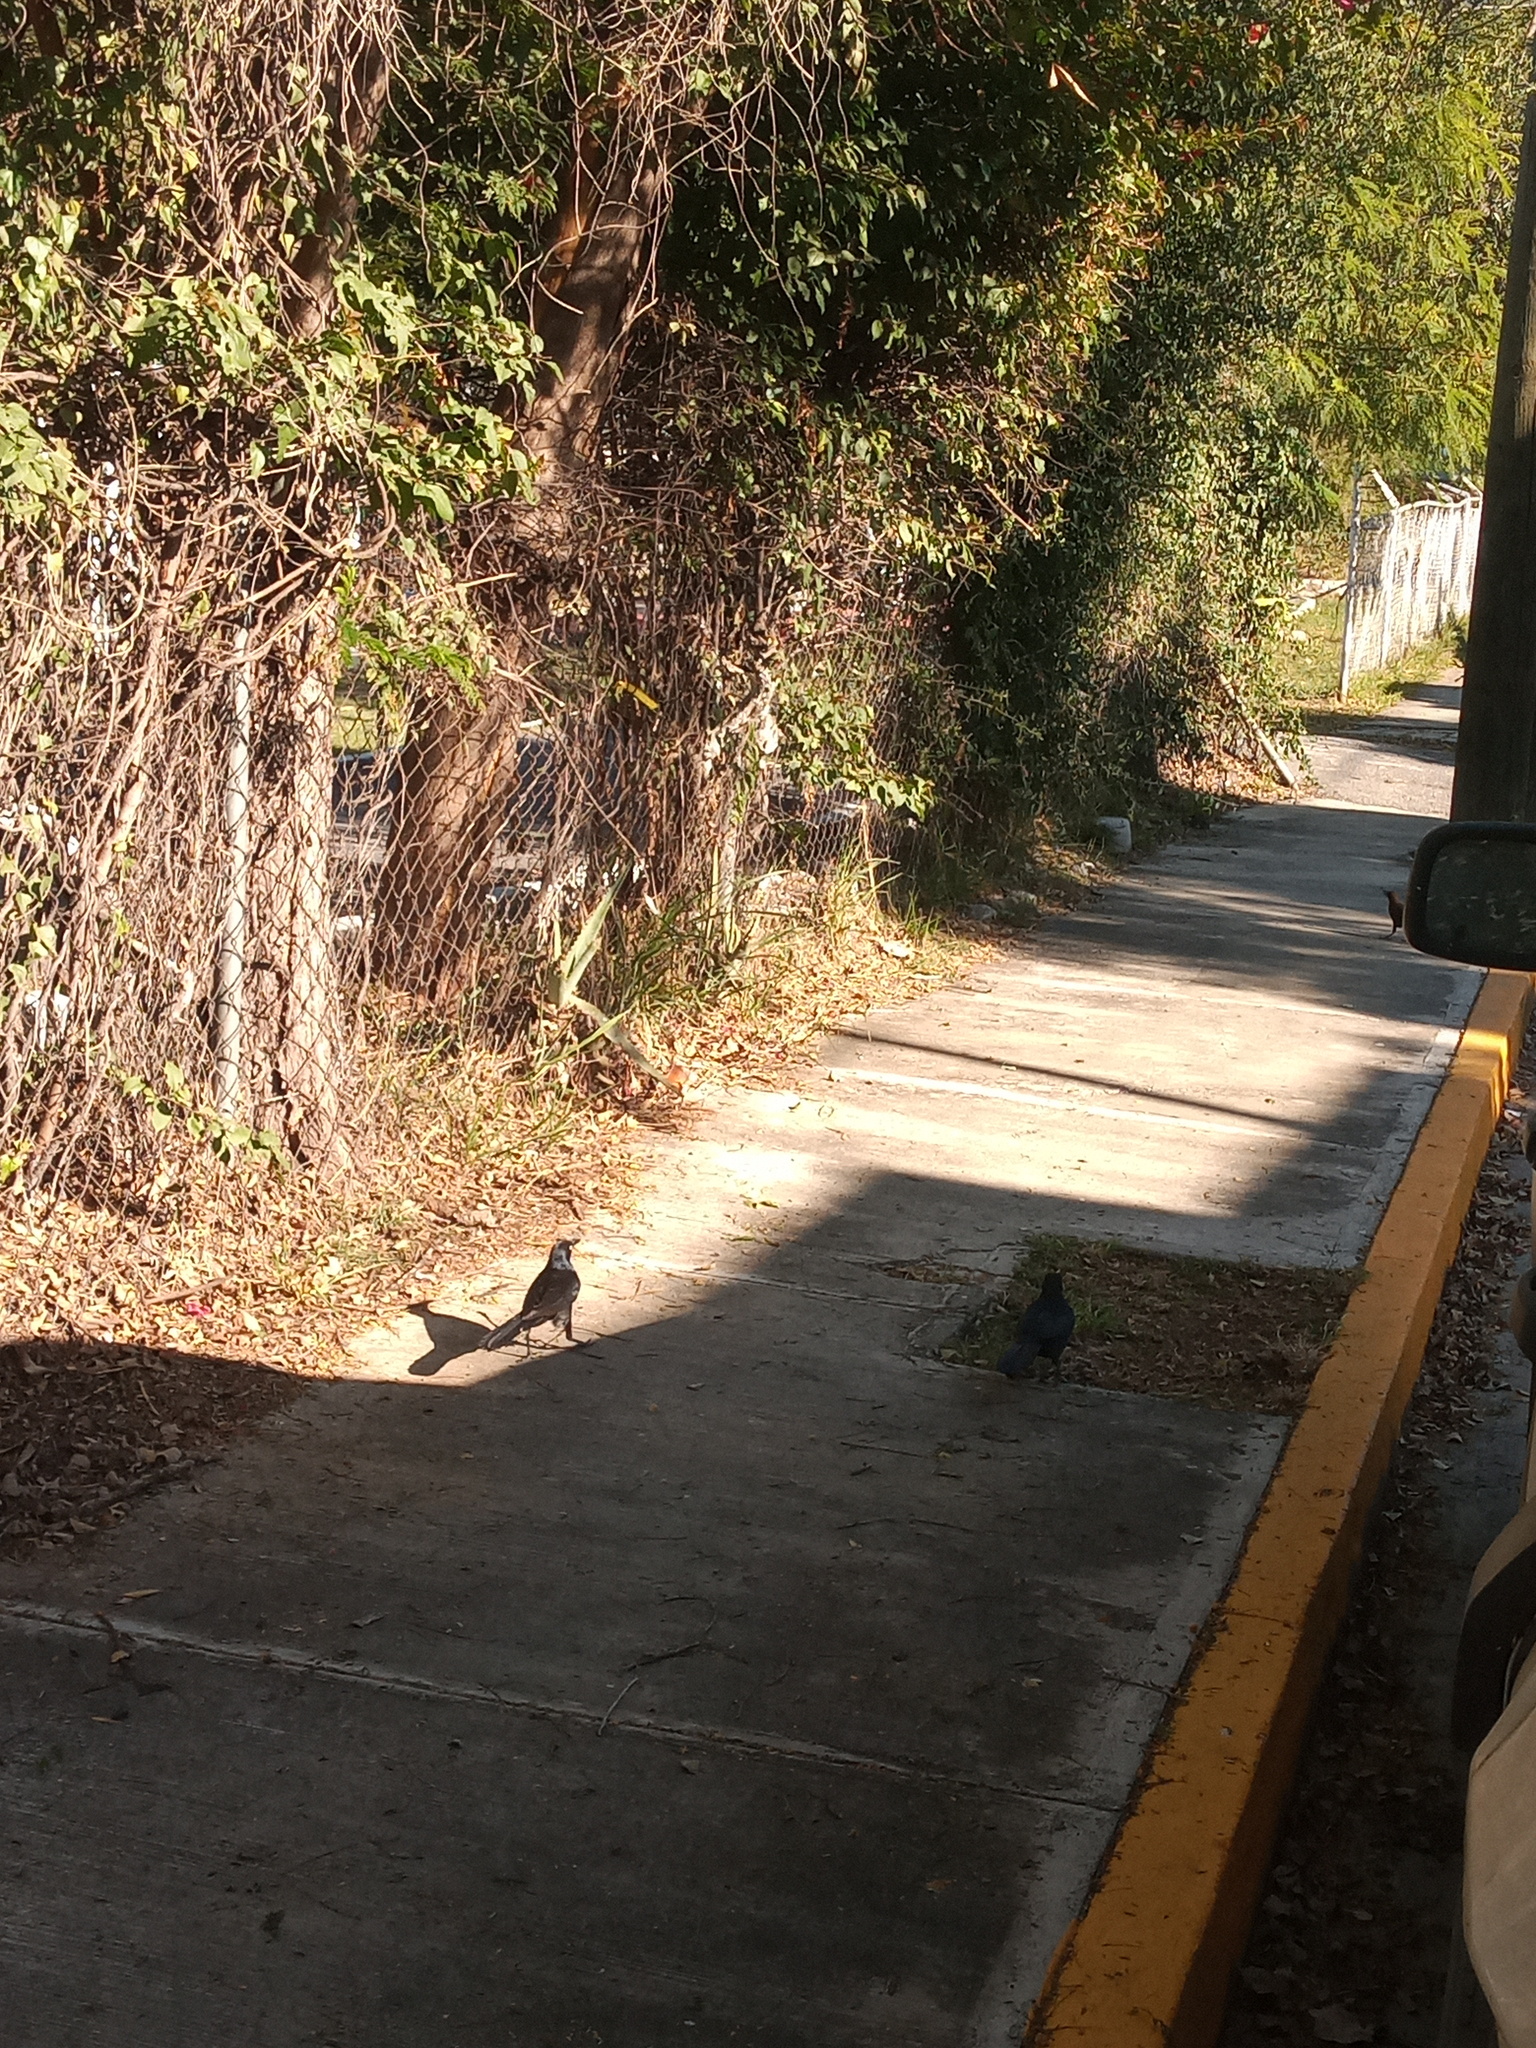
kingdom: Animalia
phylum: Chordata
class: Aves
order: Passeriformes
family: Icteridae
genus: Quiscalus
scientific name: Quiscalus mexicanus
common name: Great-tailed grackle
